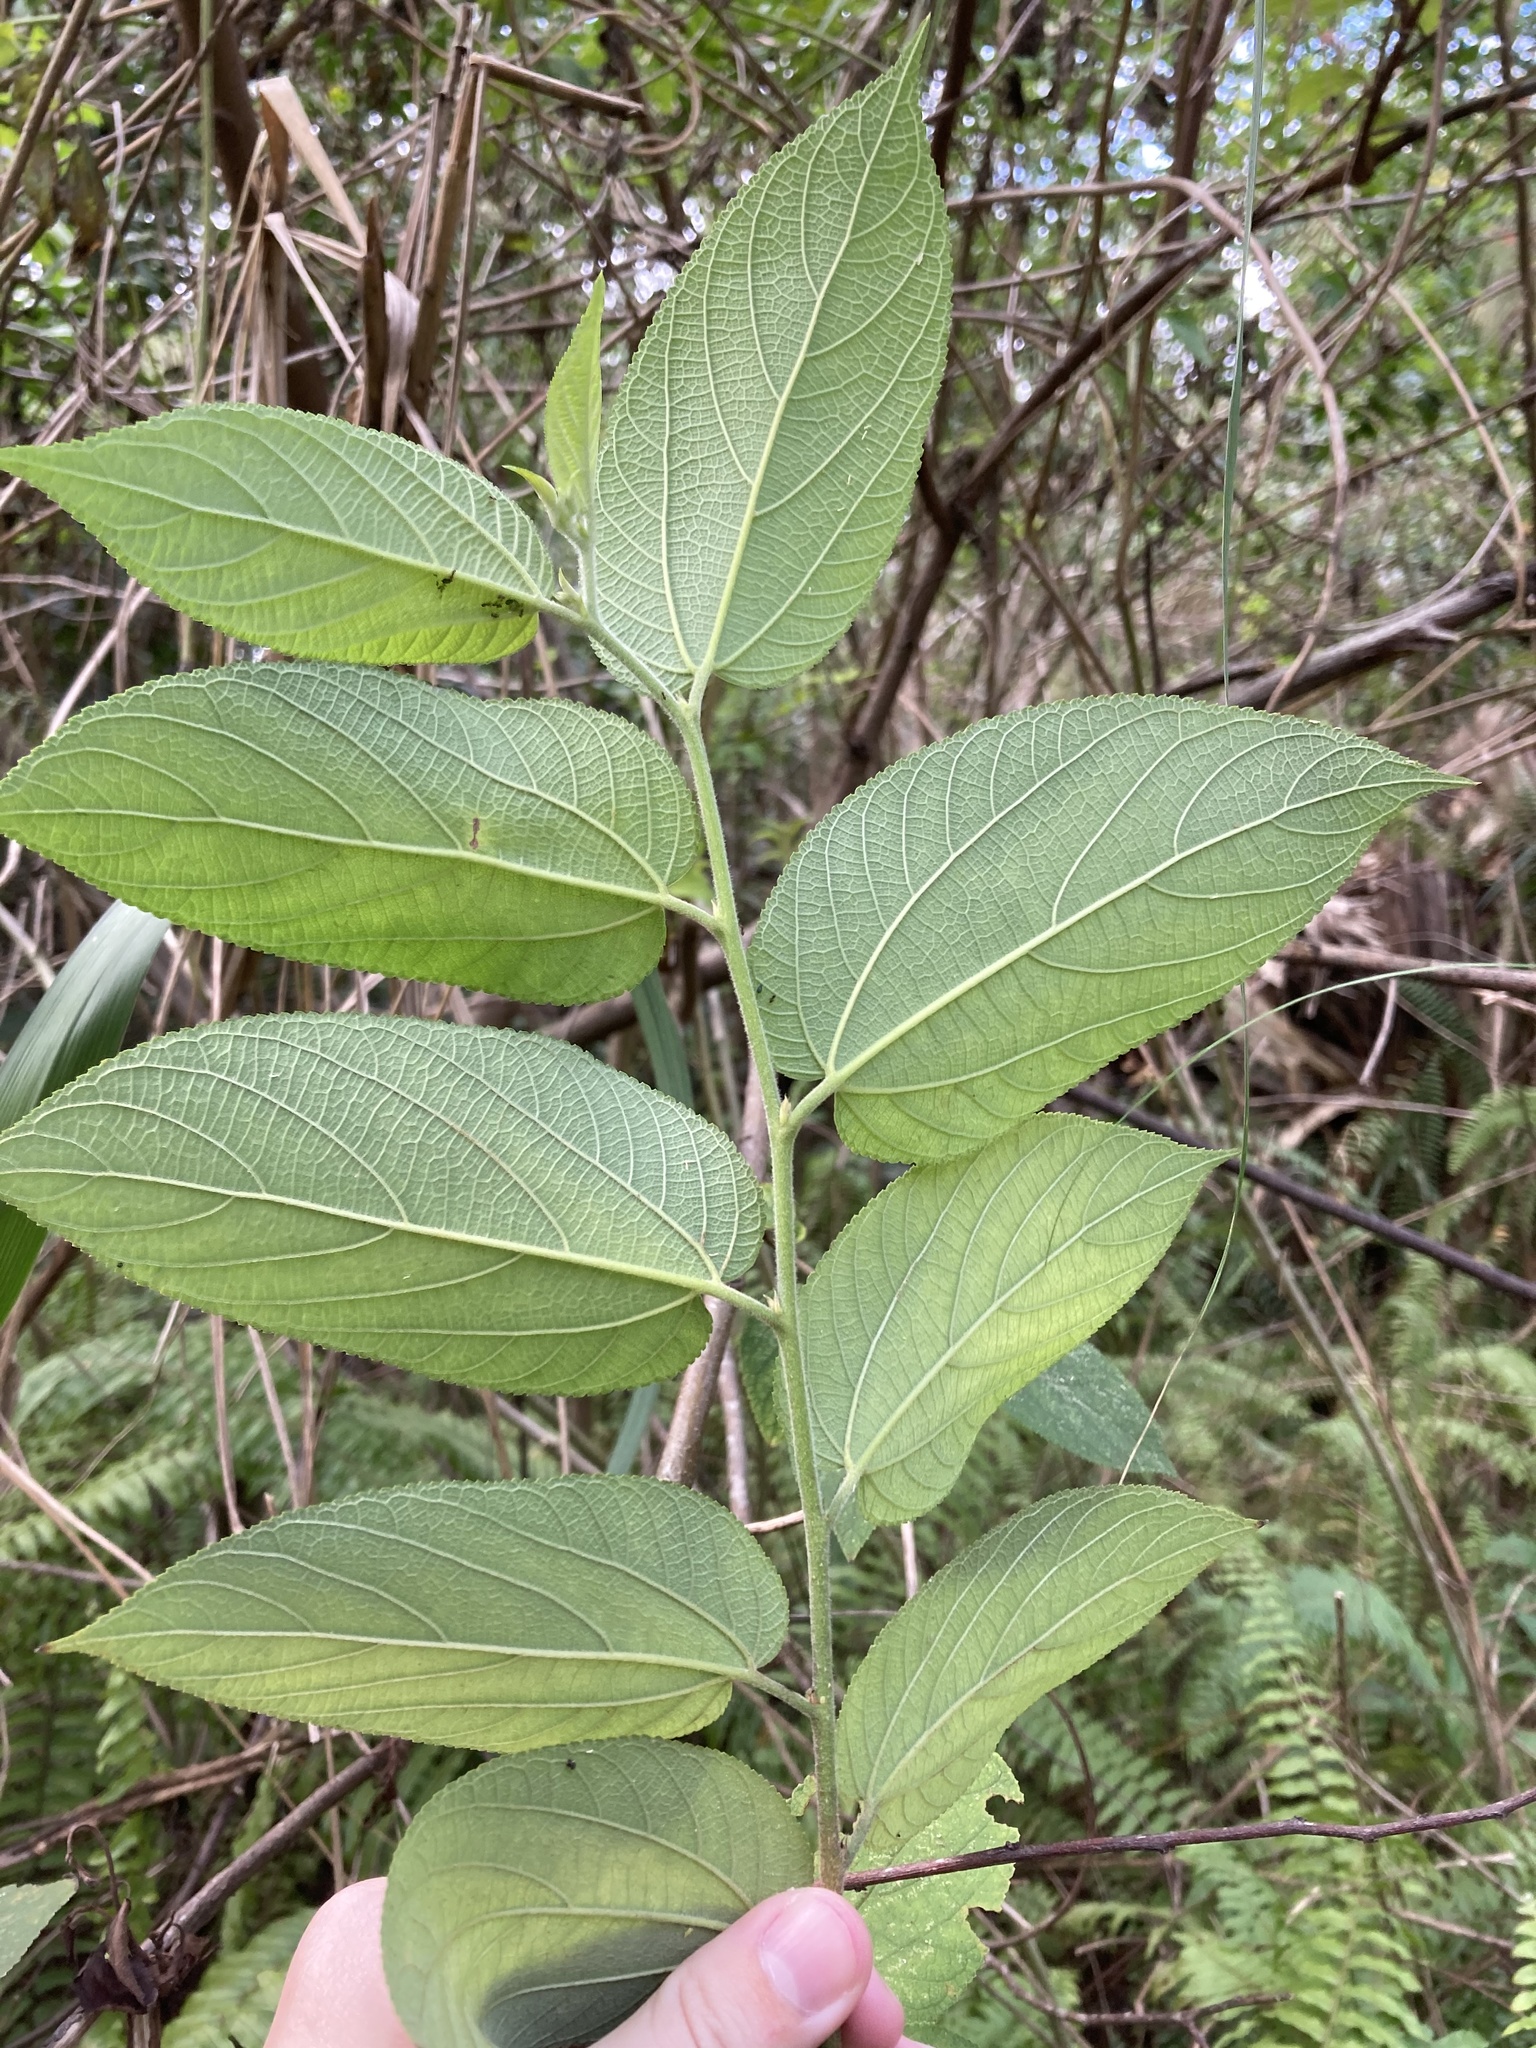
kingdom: Plantae
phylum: Tracheophyta
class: Magnoliopsida
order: Rosales
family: Cannabaceae
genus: Trema
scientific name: Trema micranthum
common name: Jamaican nettletree
